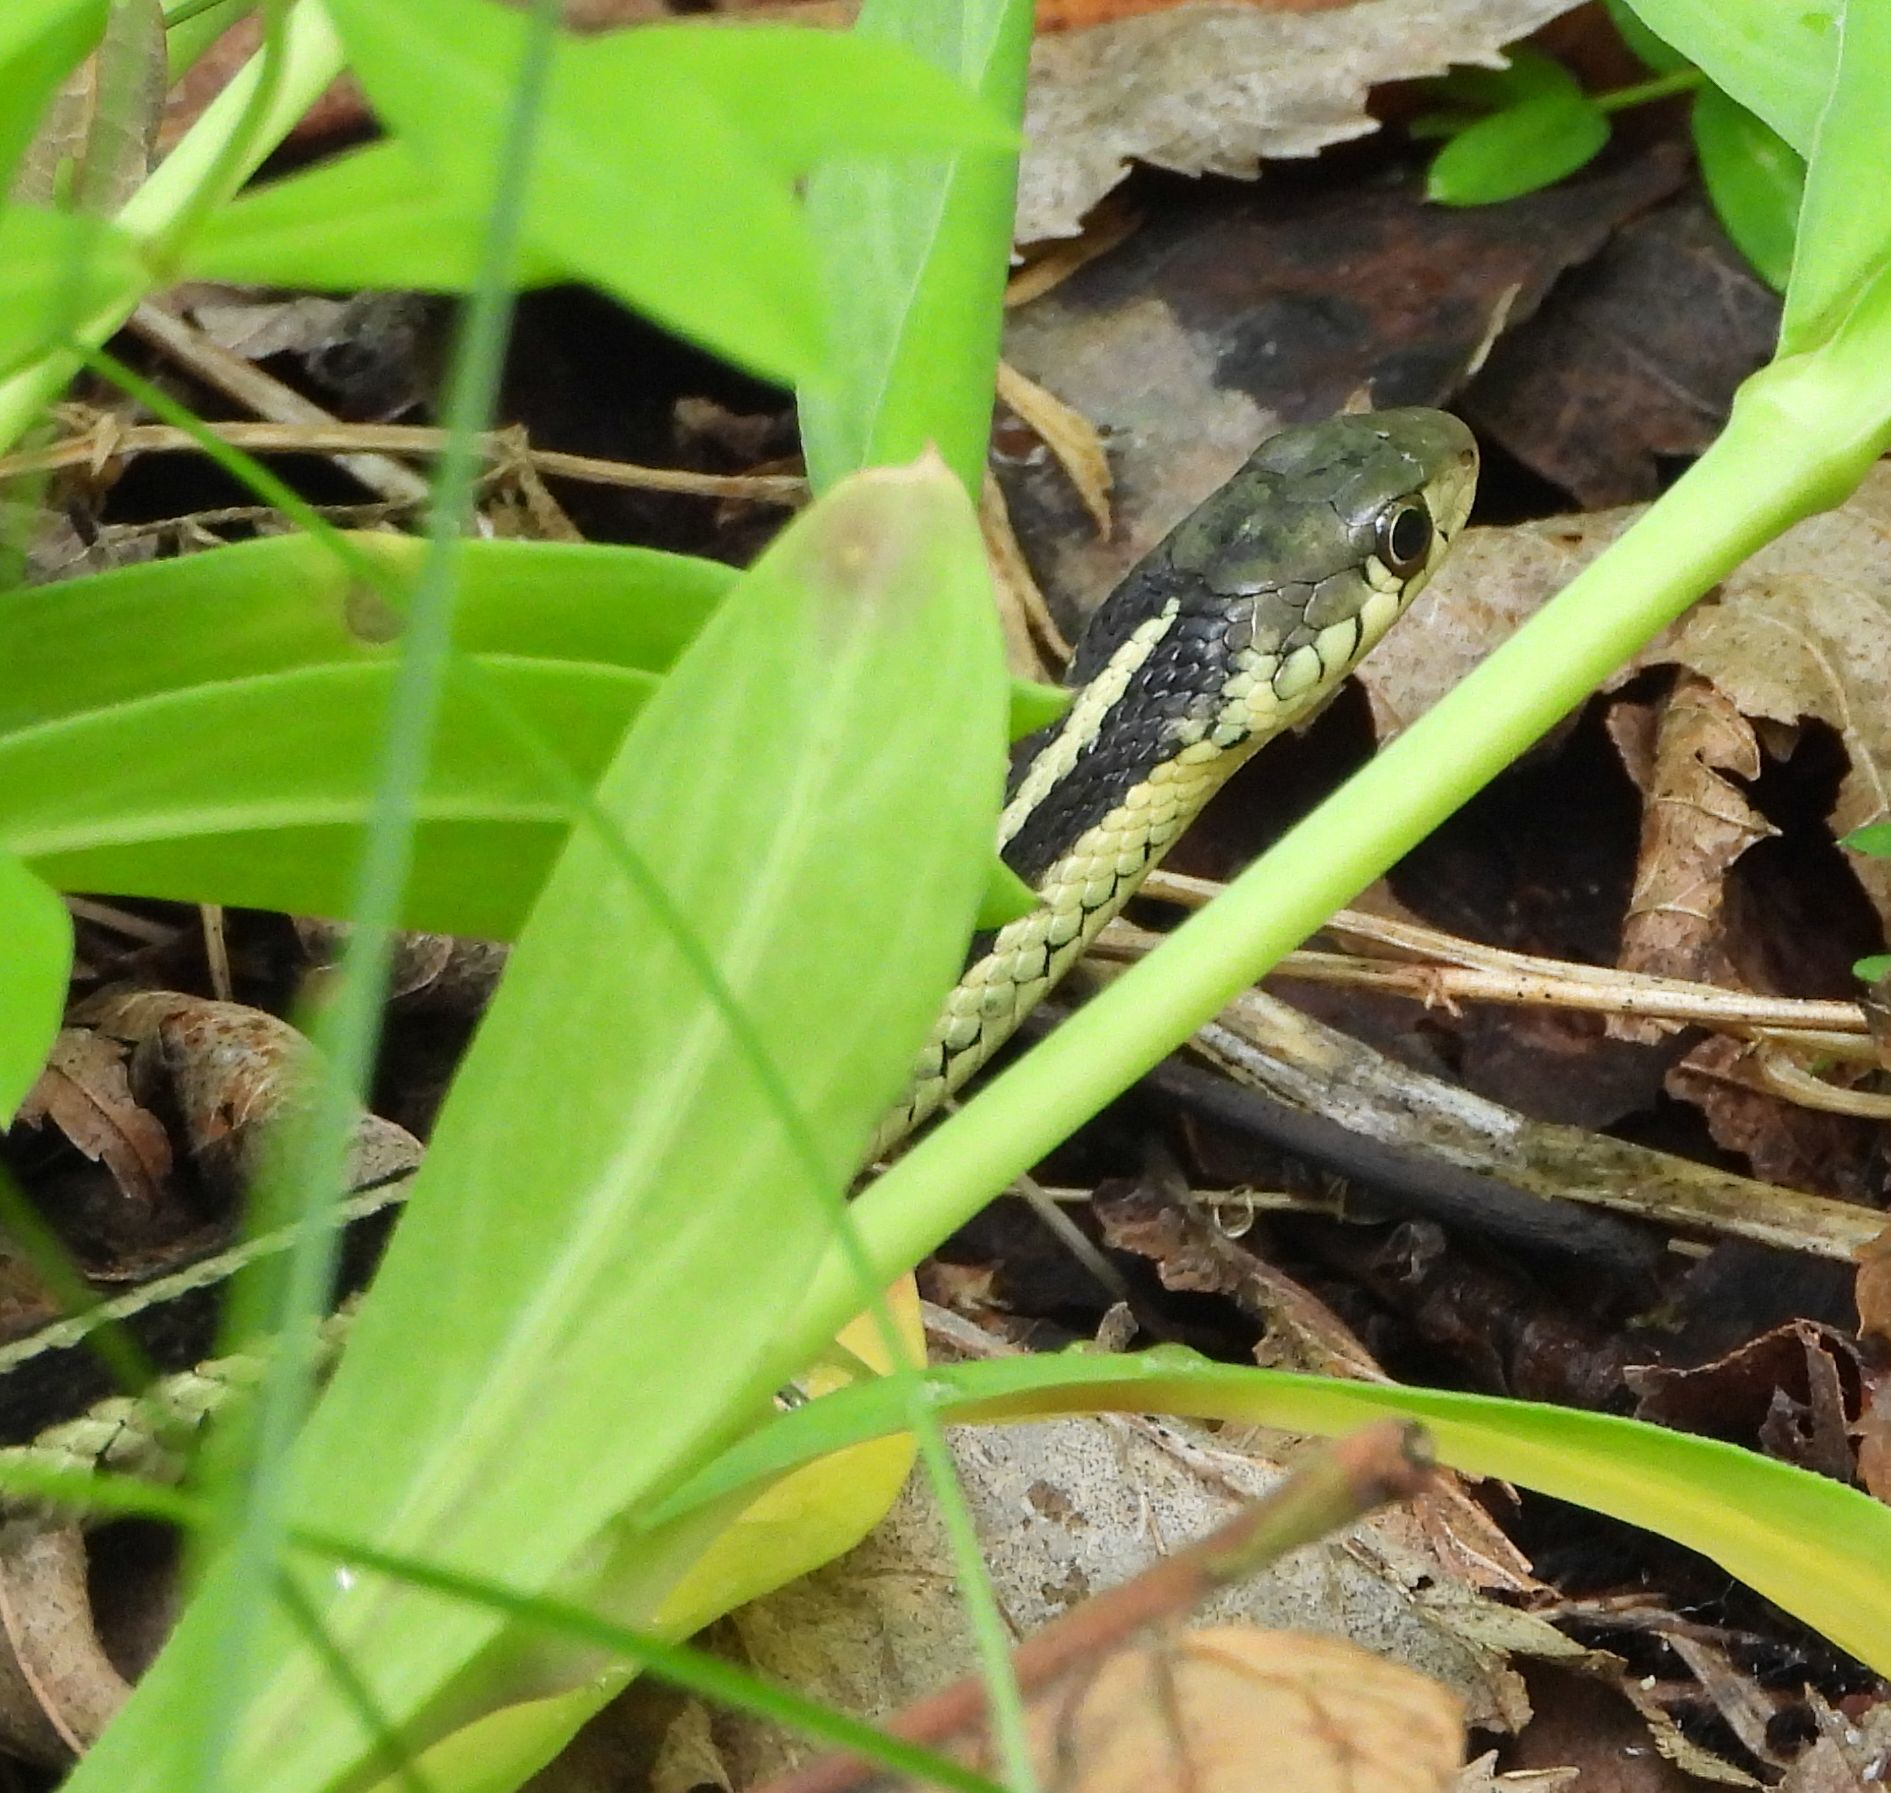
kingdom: Animalia
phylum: Chordata
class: Squamata
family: Colubridae
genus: Thamnophis
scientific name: Thamnophis sirtalis
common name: Common garter snake
